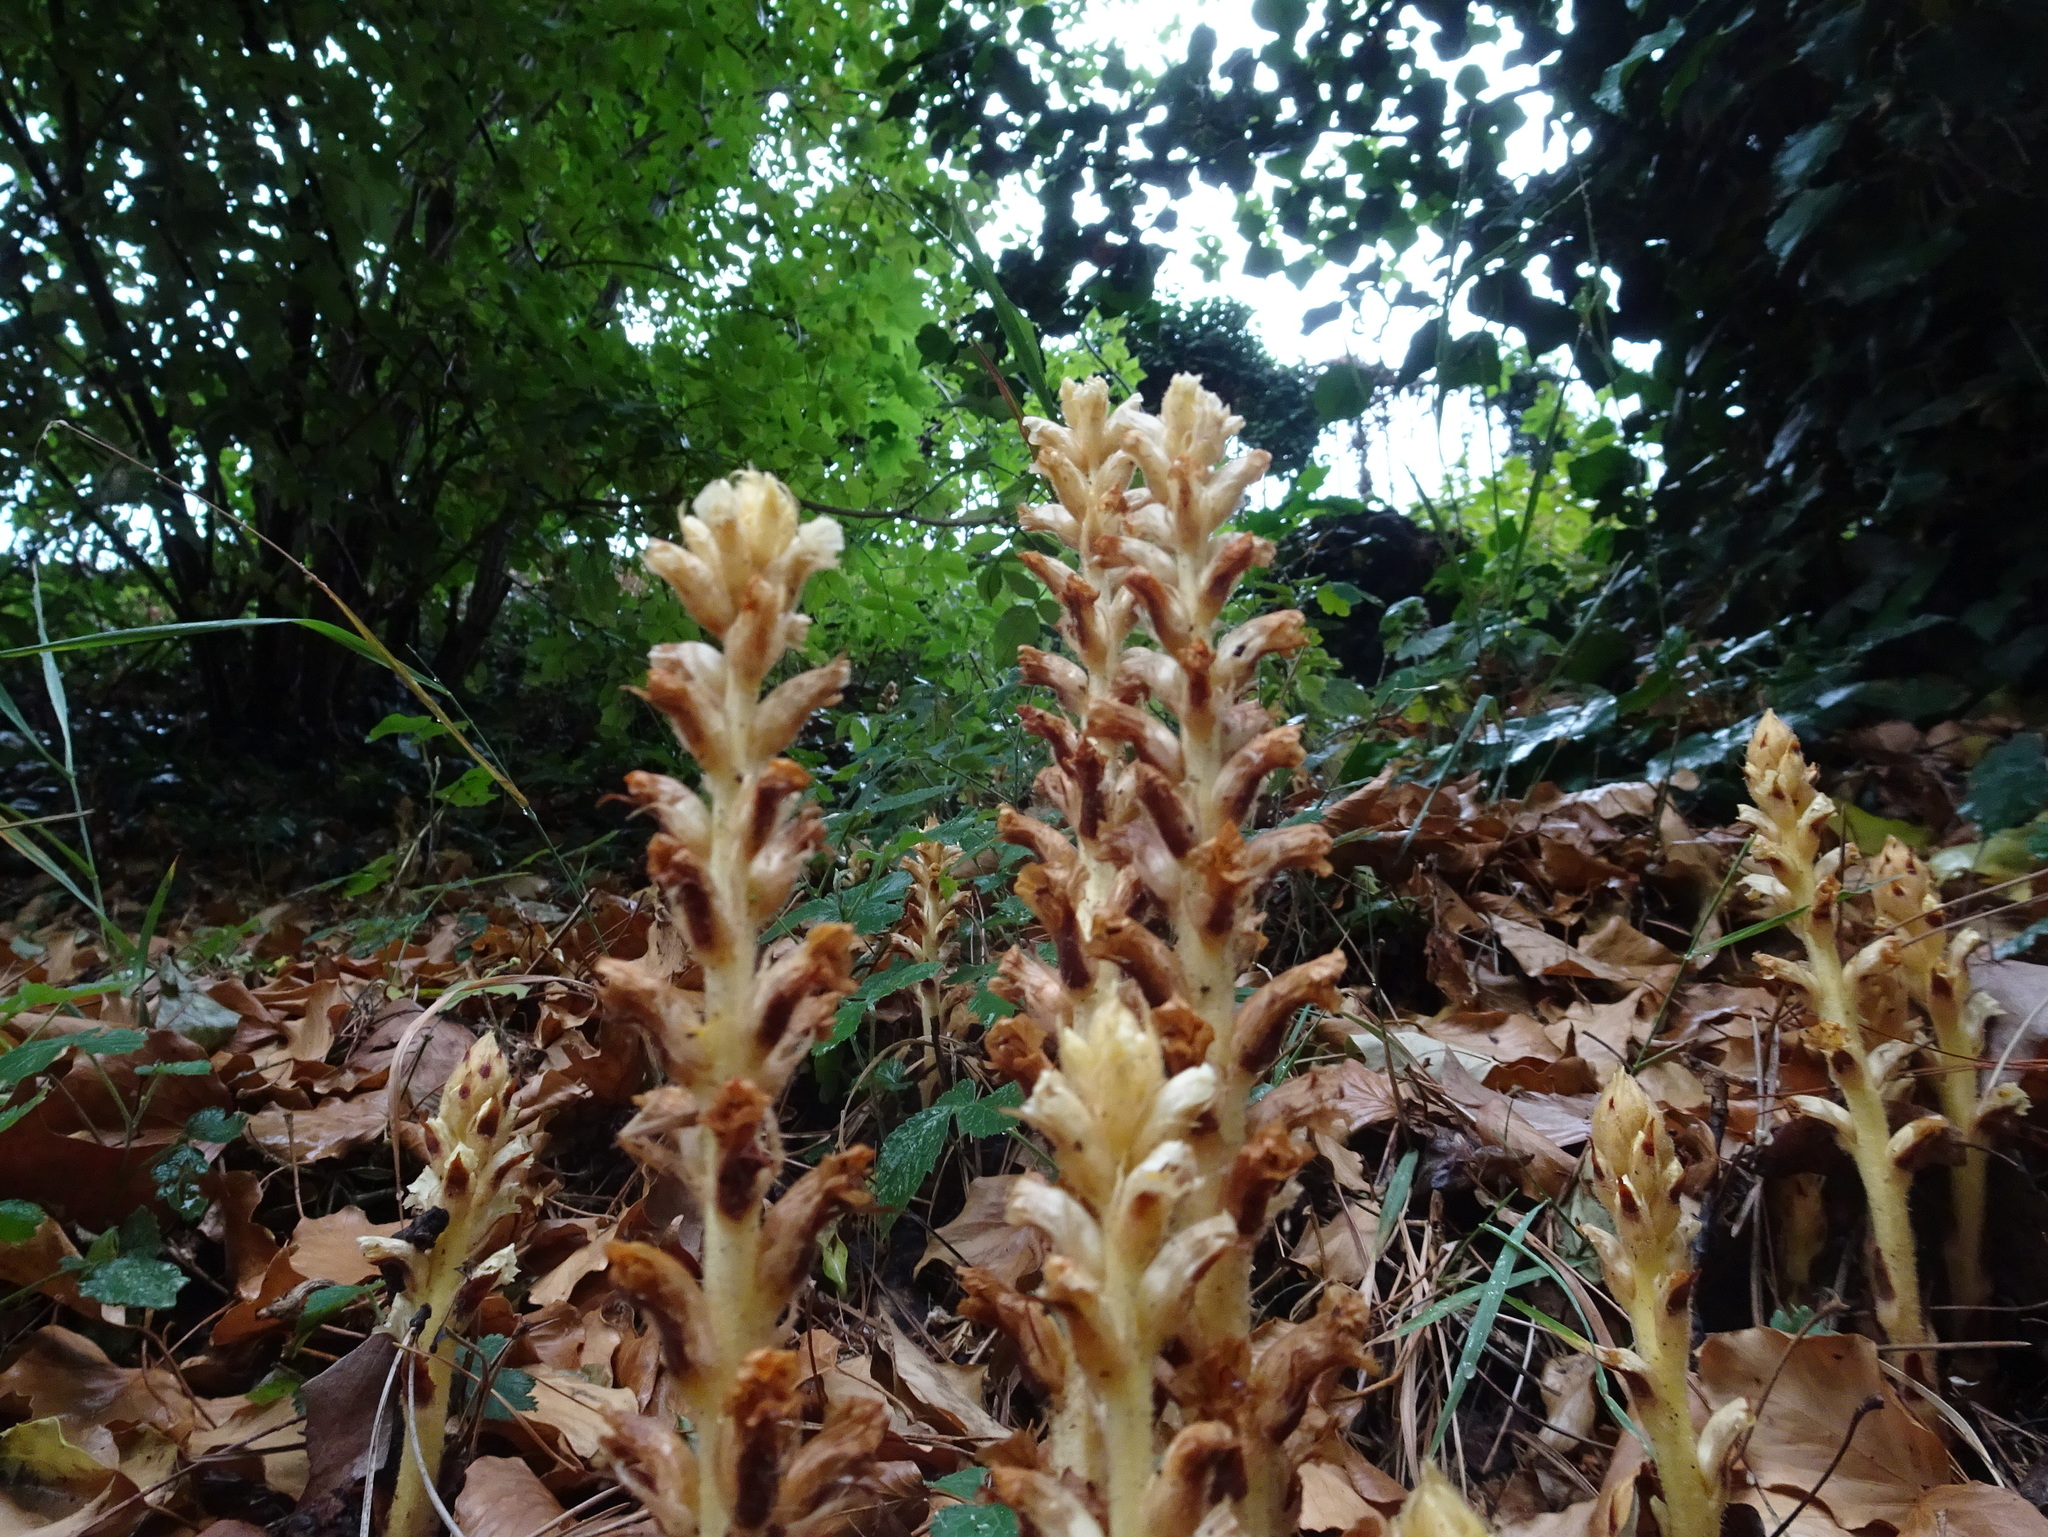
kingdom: Plantae
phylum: Tracheophyta
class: Magnoliopsida
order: Lamiales
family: Orobanchaceae
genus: Orobanche
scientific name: Orobanche hederae
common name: Ivy broomrape
